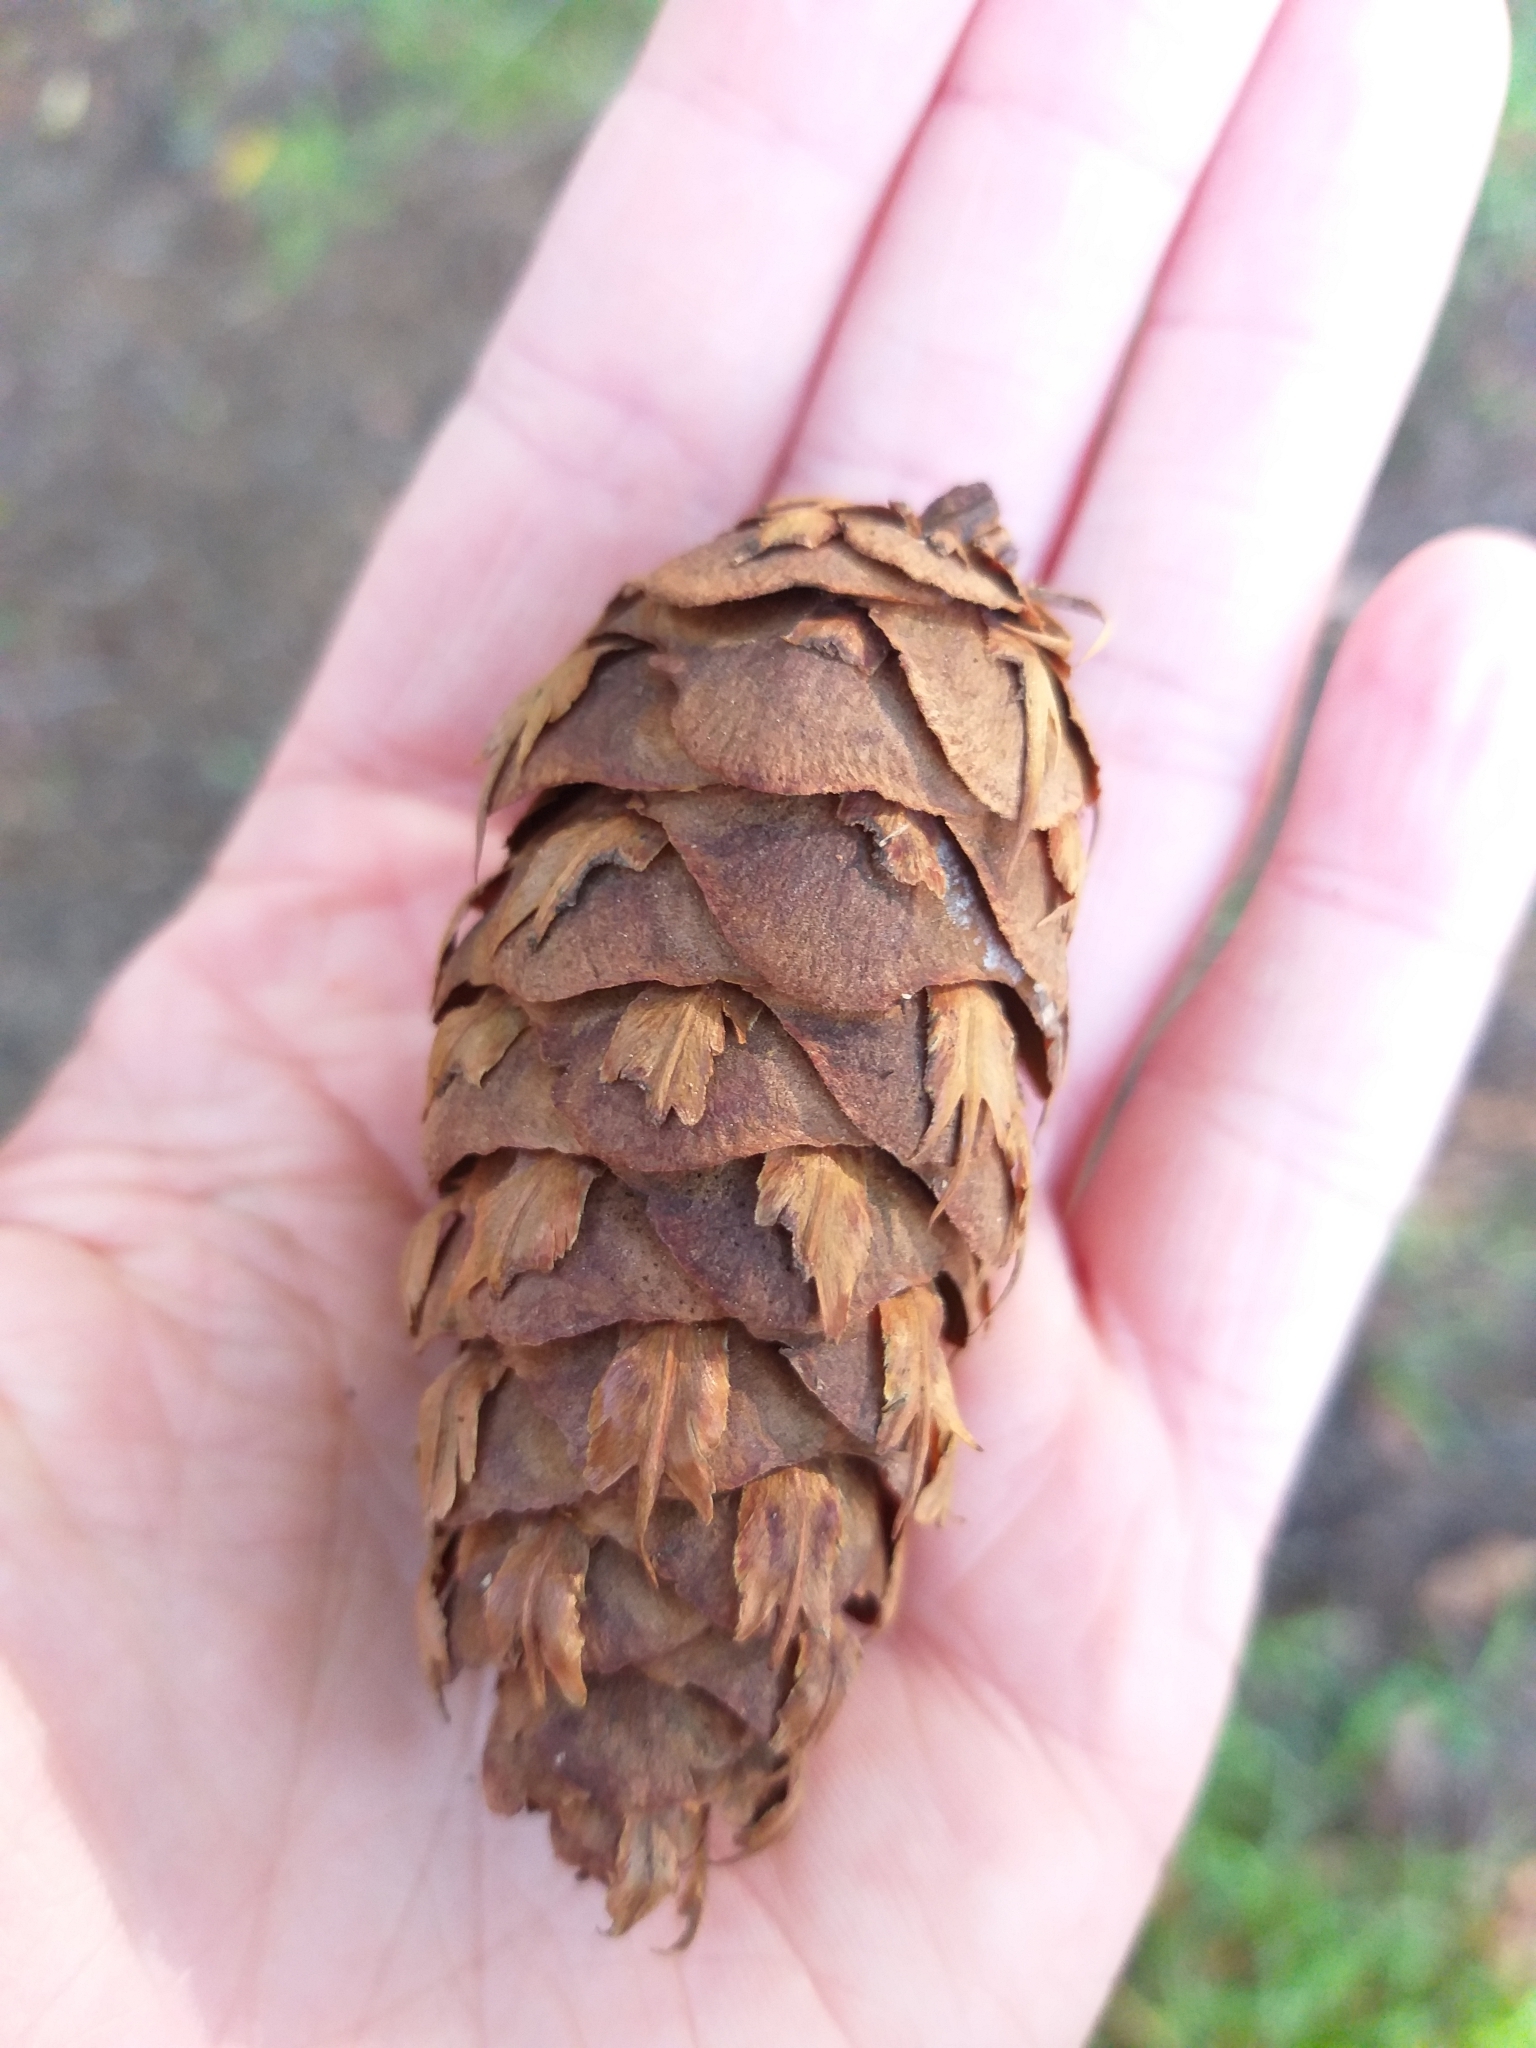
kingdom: Plantae
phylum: Tracheophyta
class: Pinopsida
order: Pinales
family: Pinaceae
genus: Pseudotsuga
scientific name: Pseudotsuga menziesii
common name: Douglas fir
